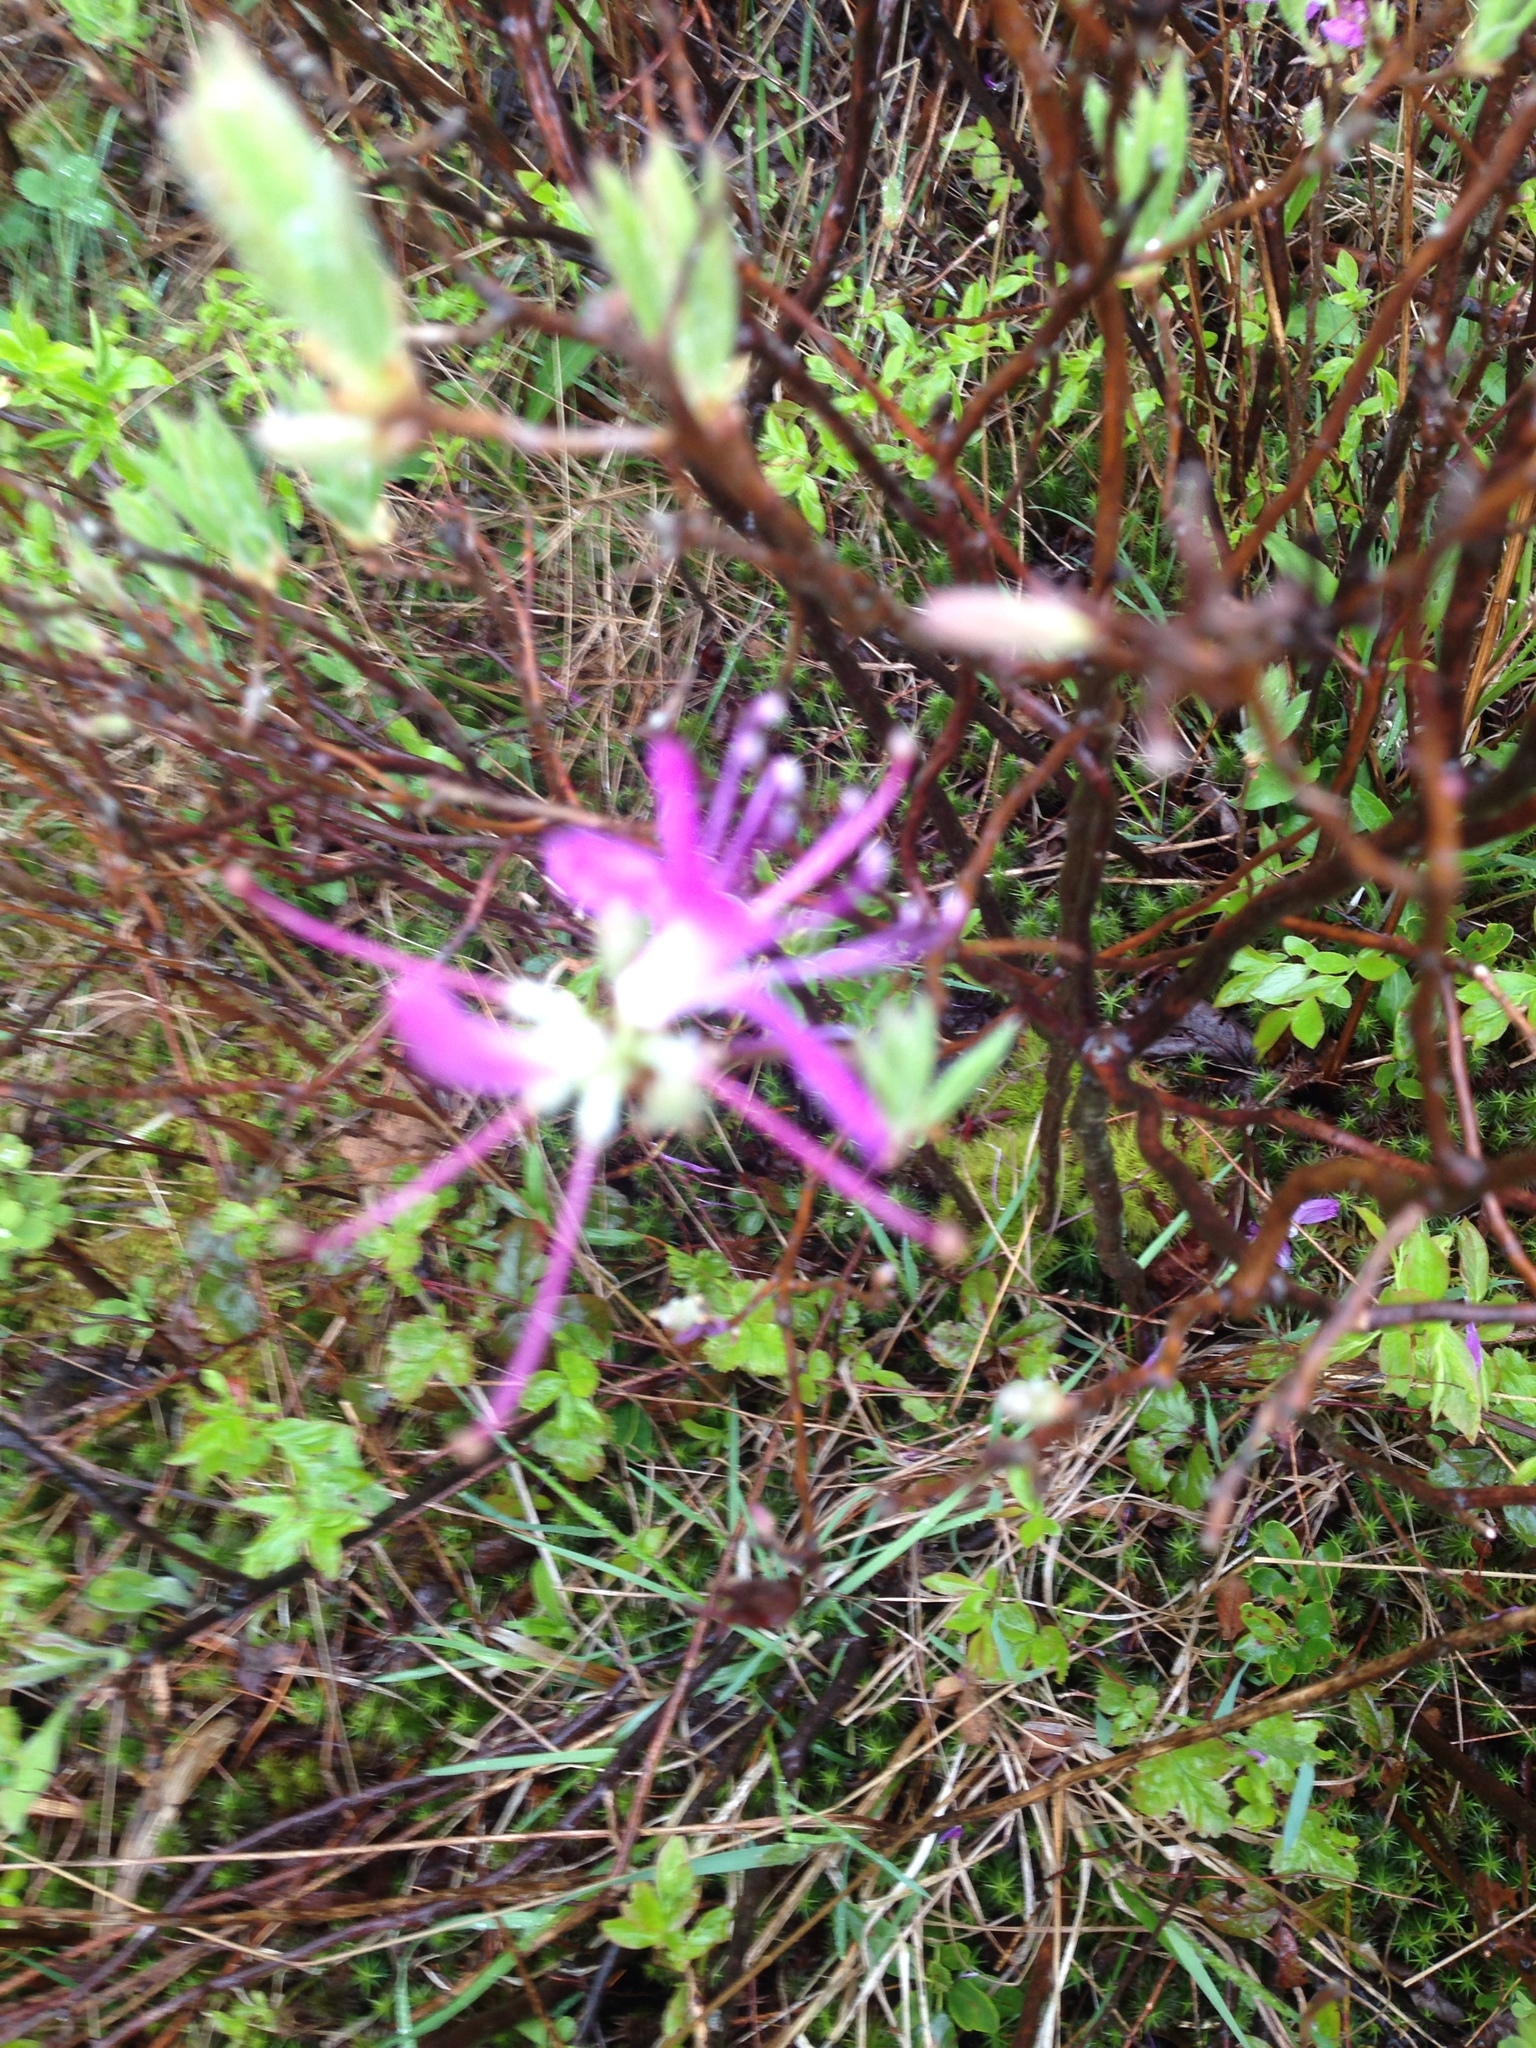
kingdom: Plantae
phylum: Tracheophyta
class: Magnoliopsida
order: Ericales
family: Ericaceae
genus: Rhododendron
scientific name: Rhododendron canadense
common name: Rhodora
